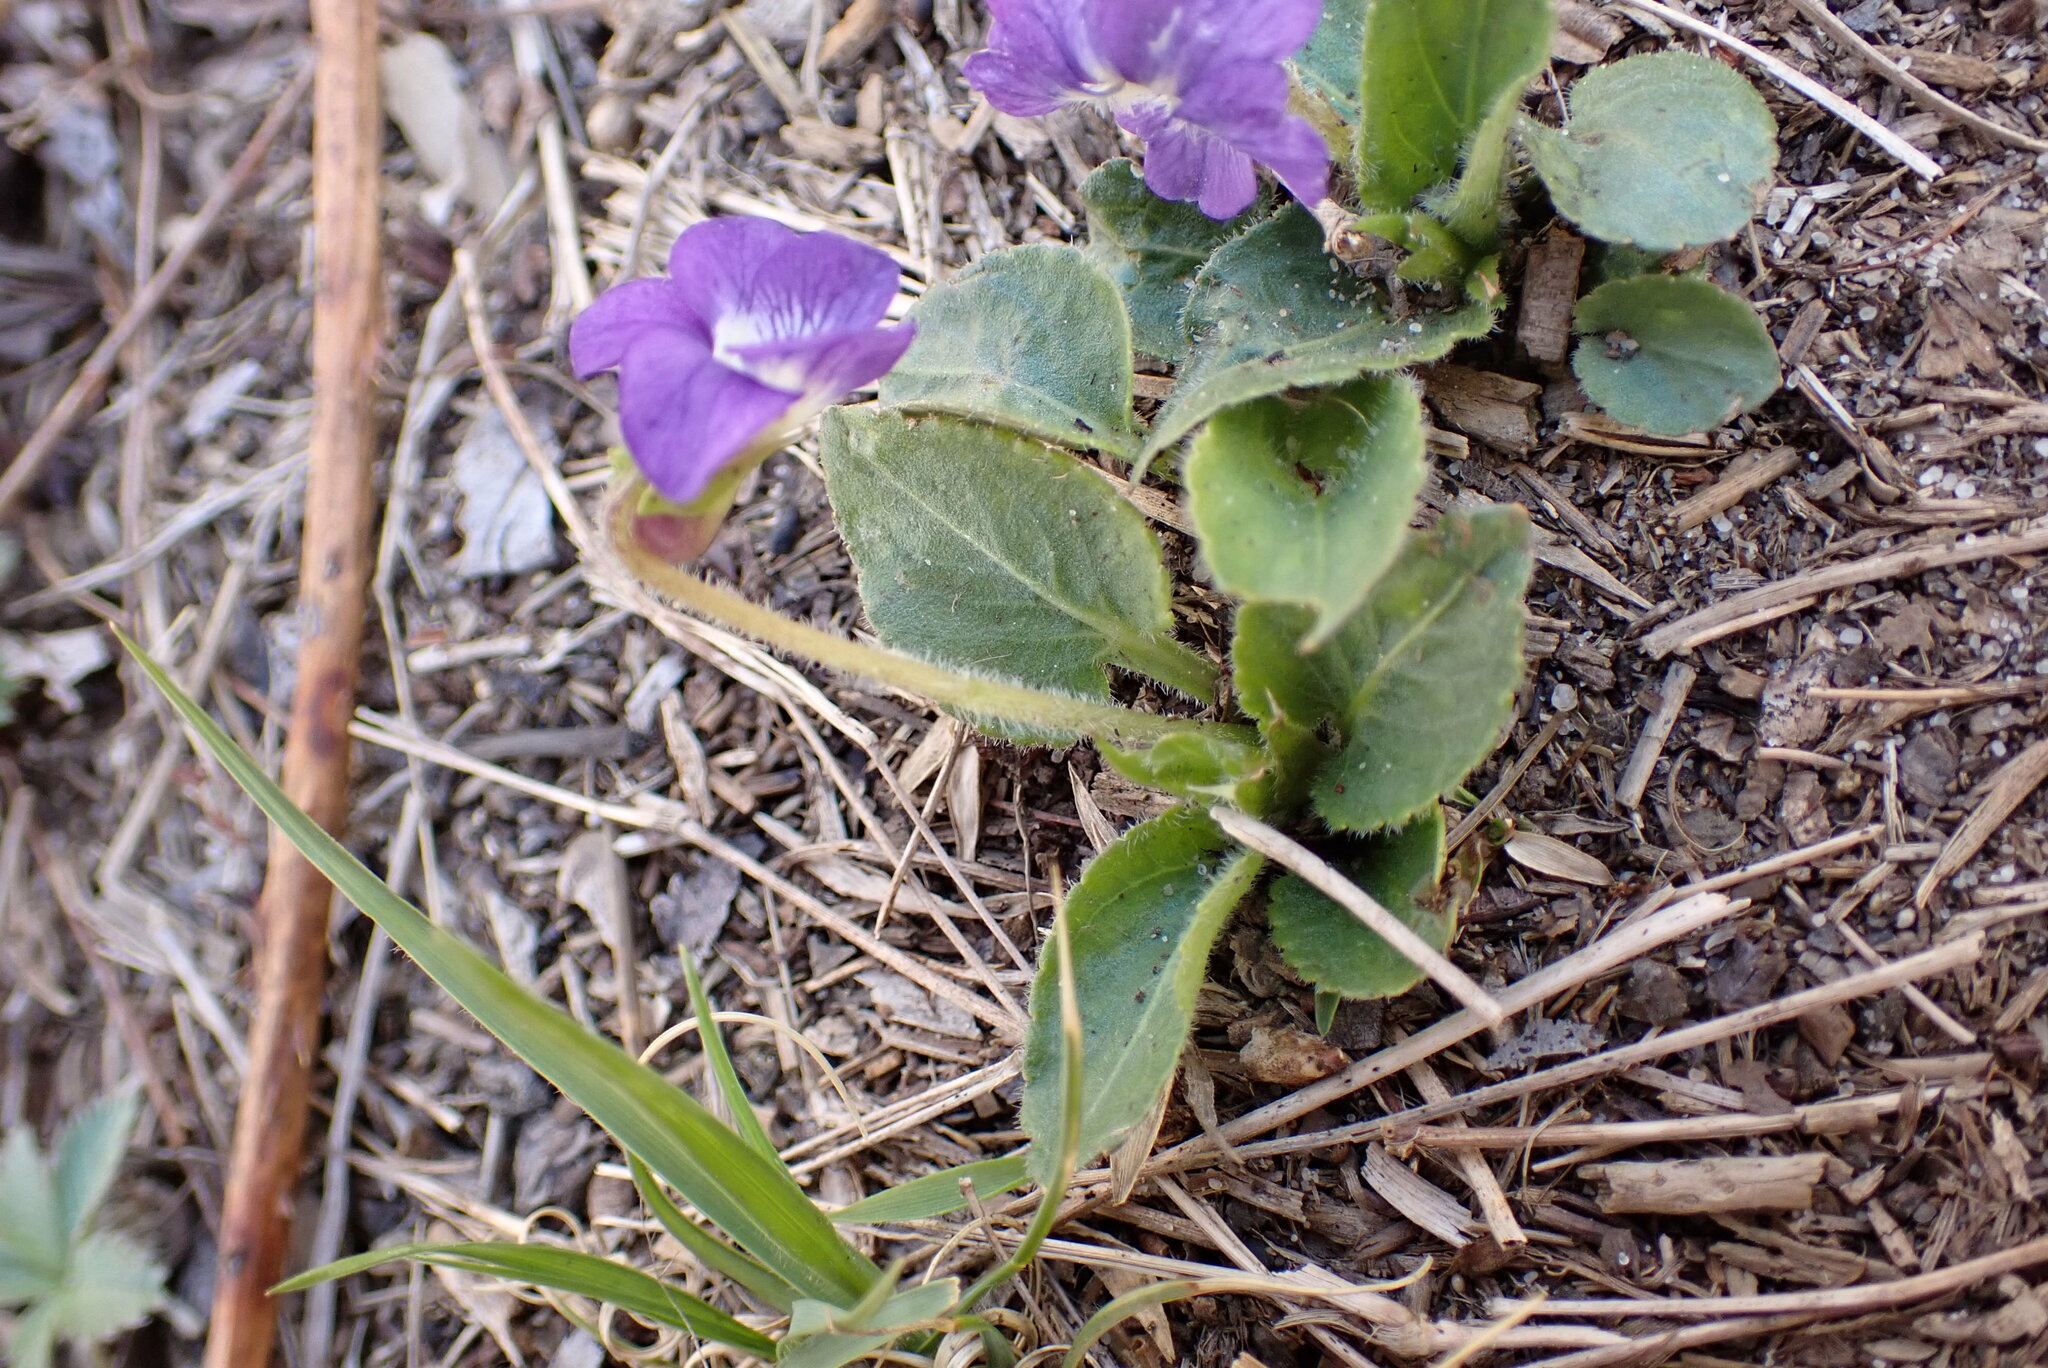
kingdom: Plantae
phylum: Tracheophyta
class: Magnoliopsida
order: Malpighiales
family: Violaceae
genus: Viola
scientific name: Viola fimbriatula
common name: Sand violet
